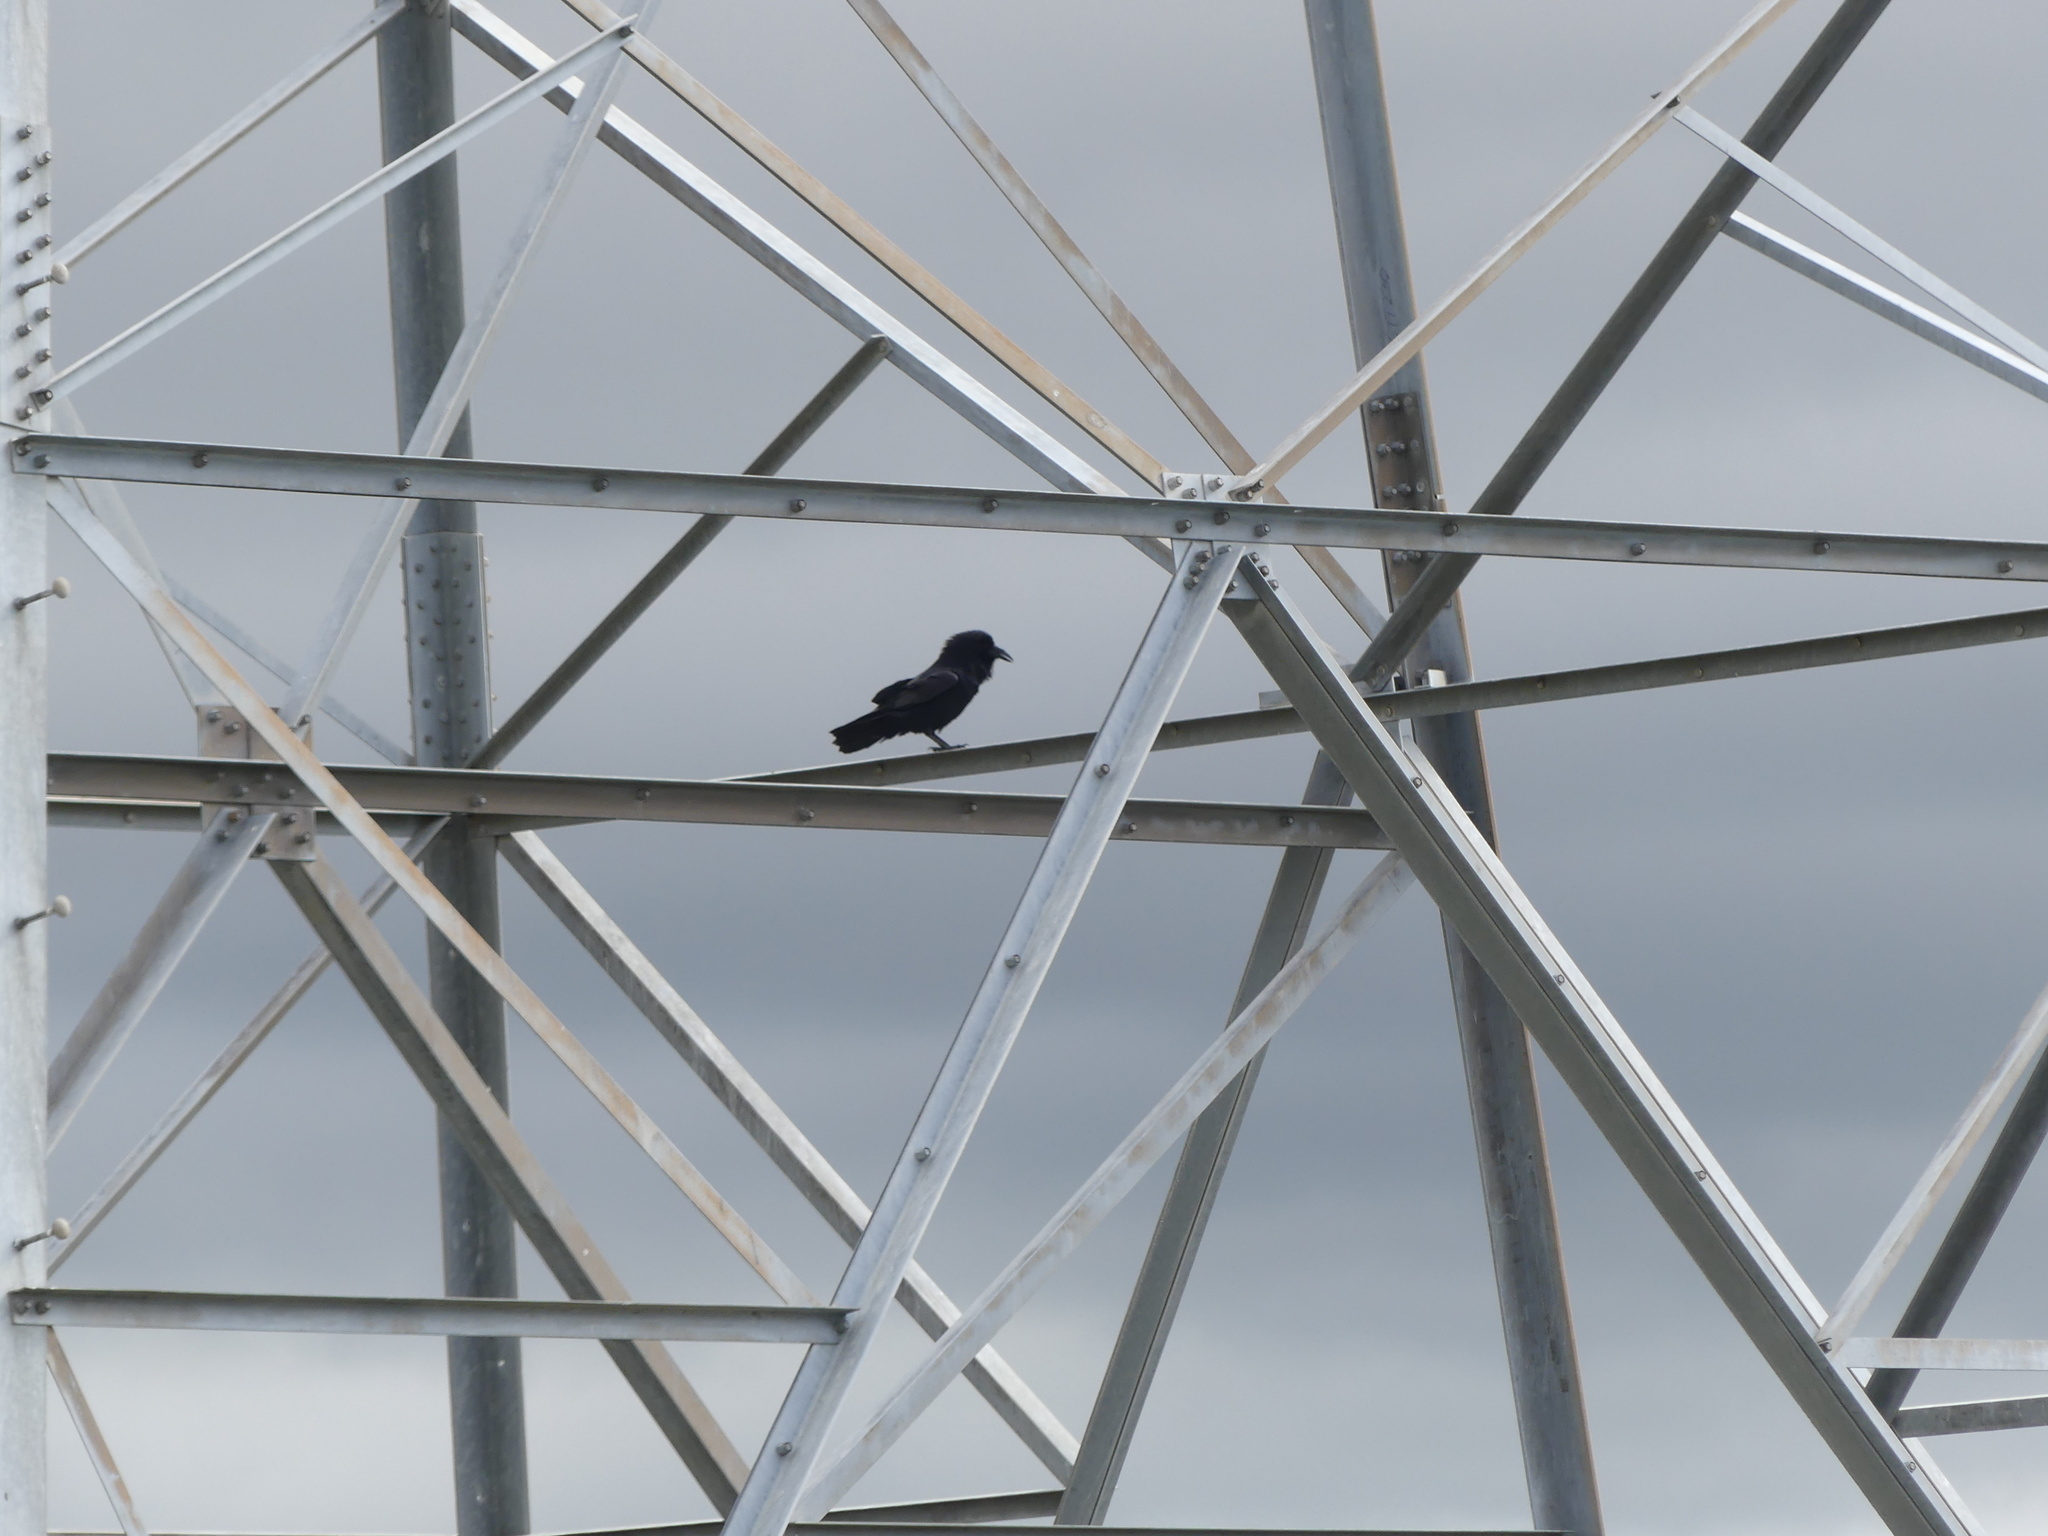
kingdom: Animalia
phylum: Chordata
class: Aves
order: Passeriformes
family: Corvidae
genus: Corvus
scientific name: Corvus corax
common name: Common raven
